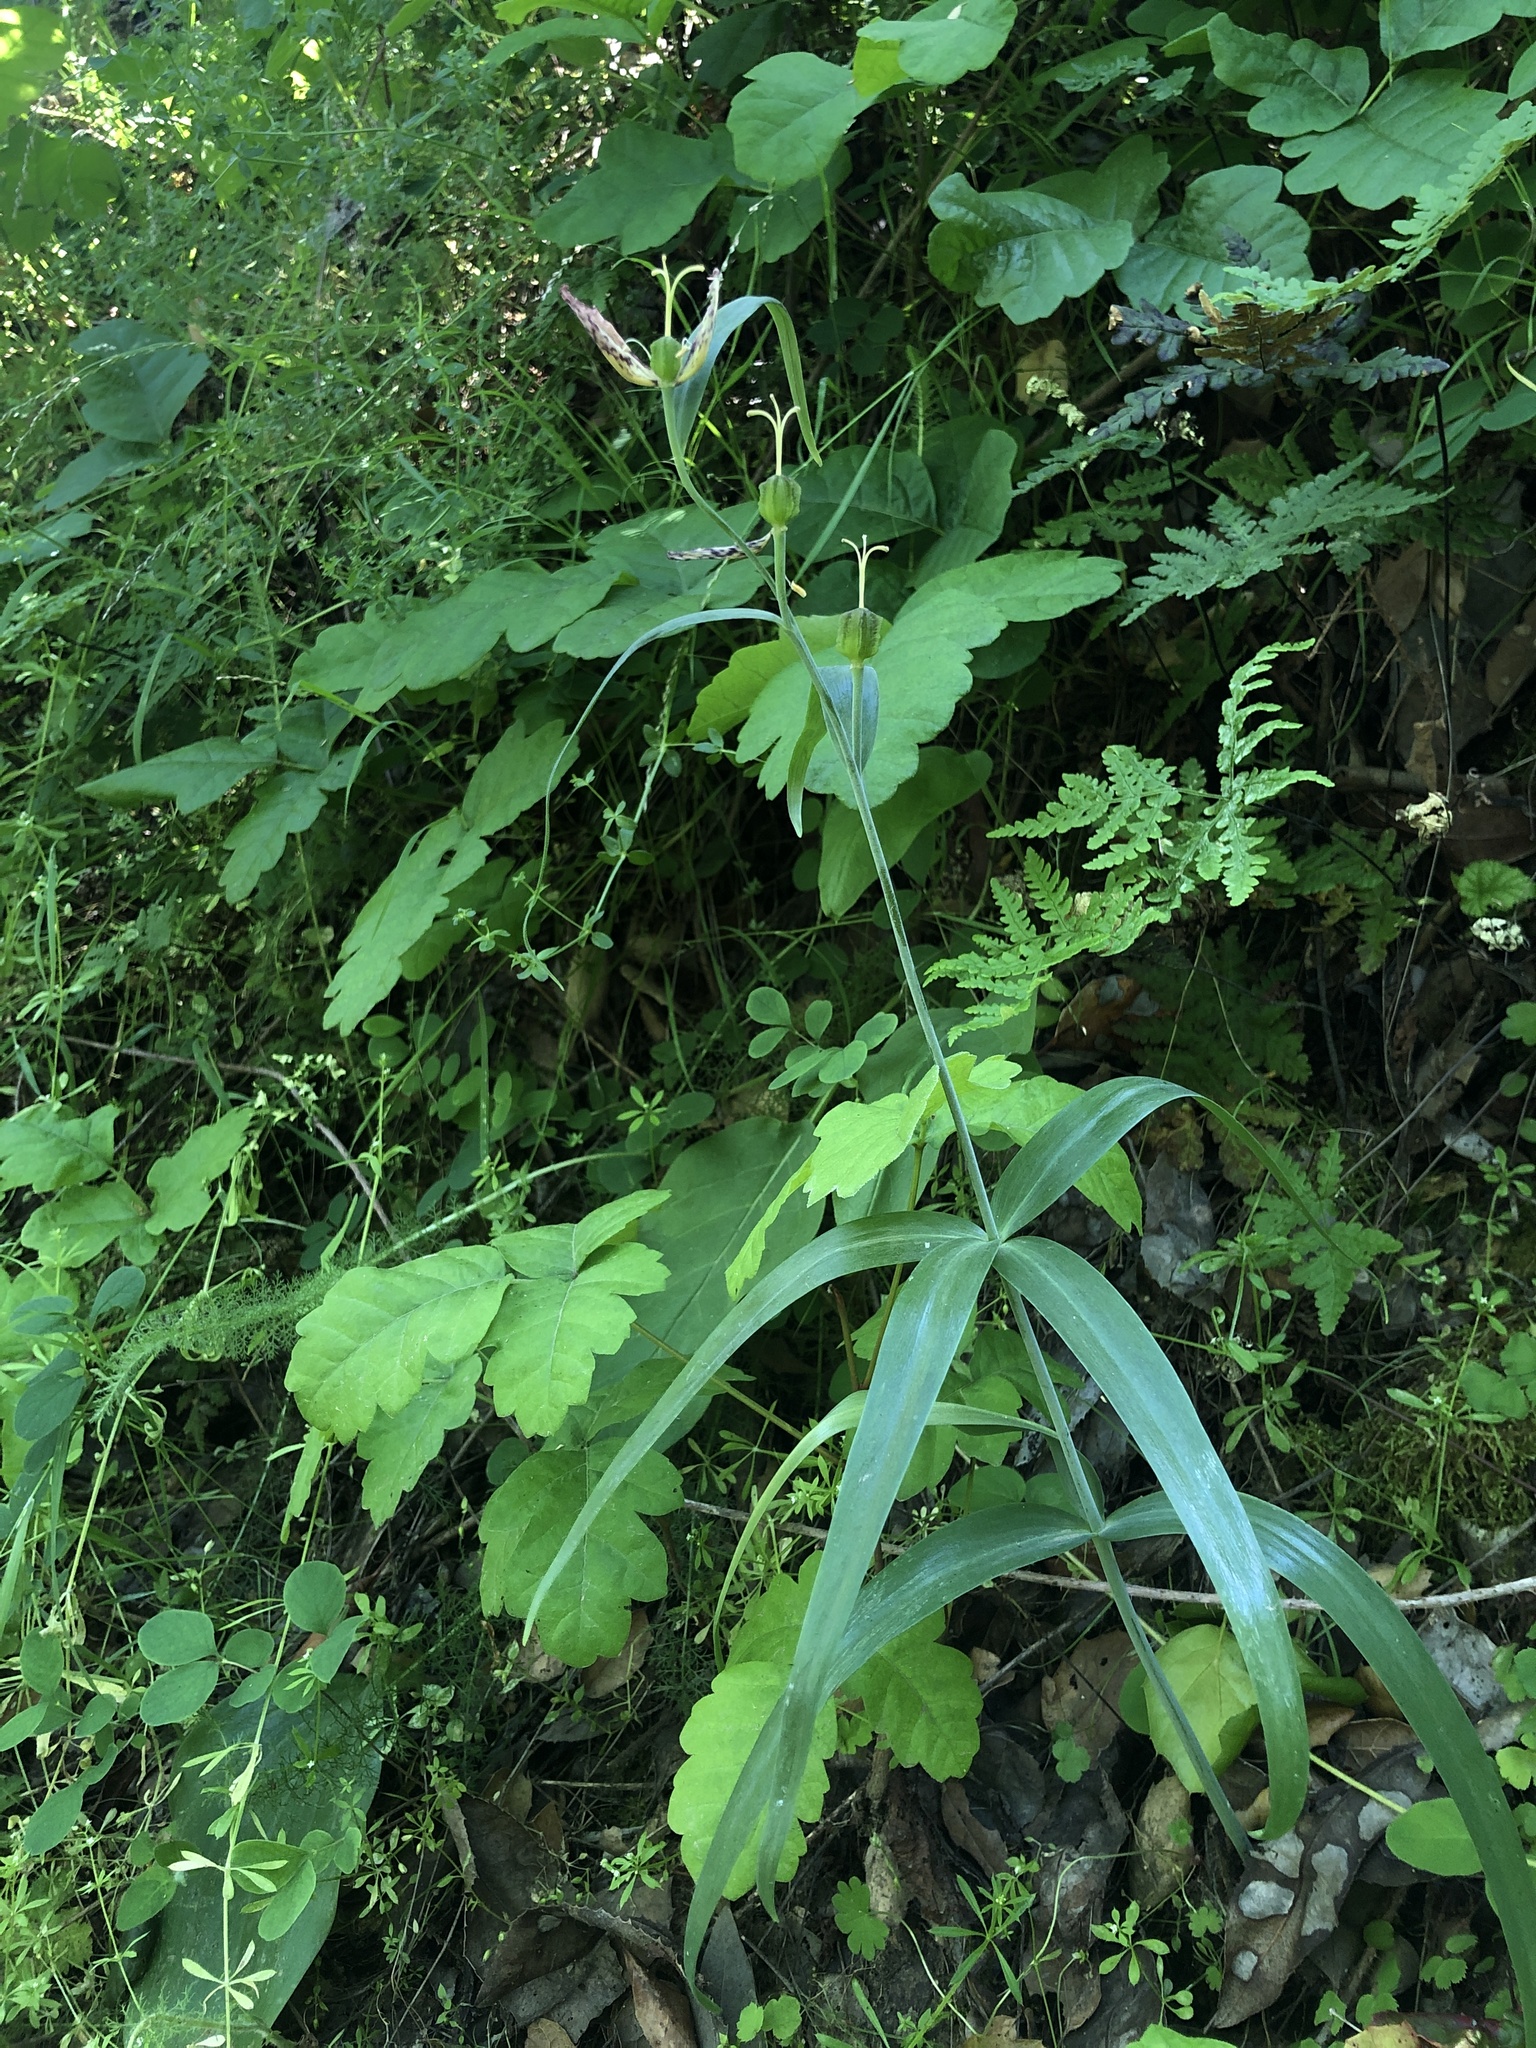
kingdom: Plantae
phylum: Tracheophyta
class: Liliopsida
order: Liliales
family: Liliaceae
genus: Fritillaria
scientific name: Fritillaria affinis
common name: Ojai fritillary
